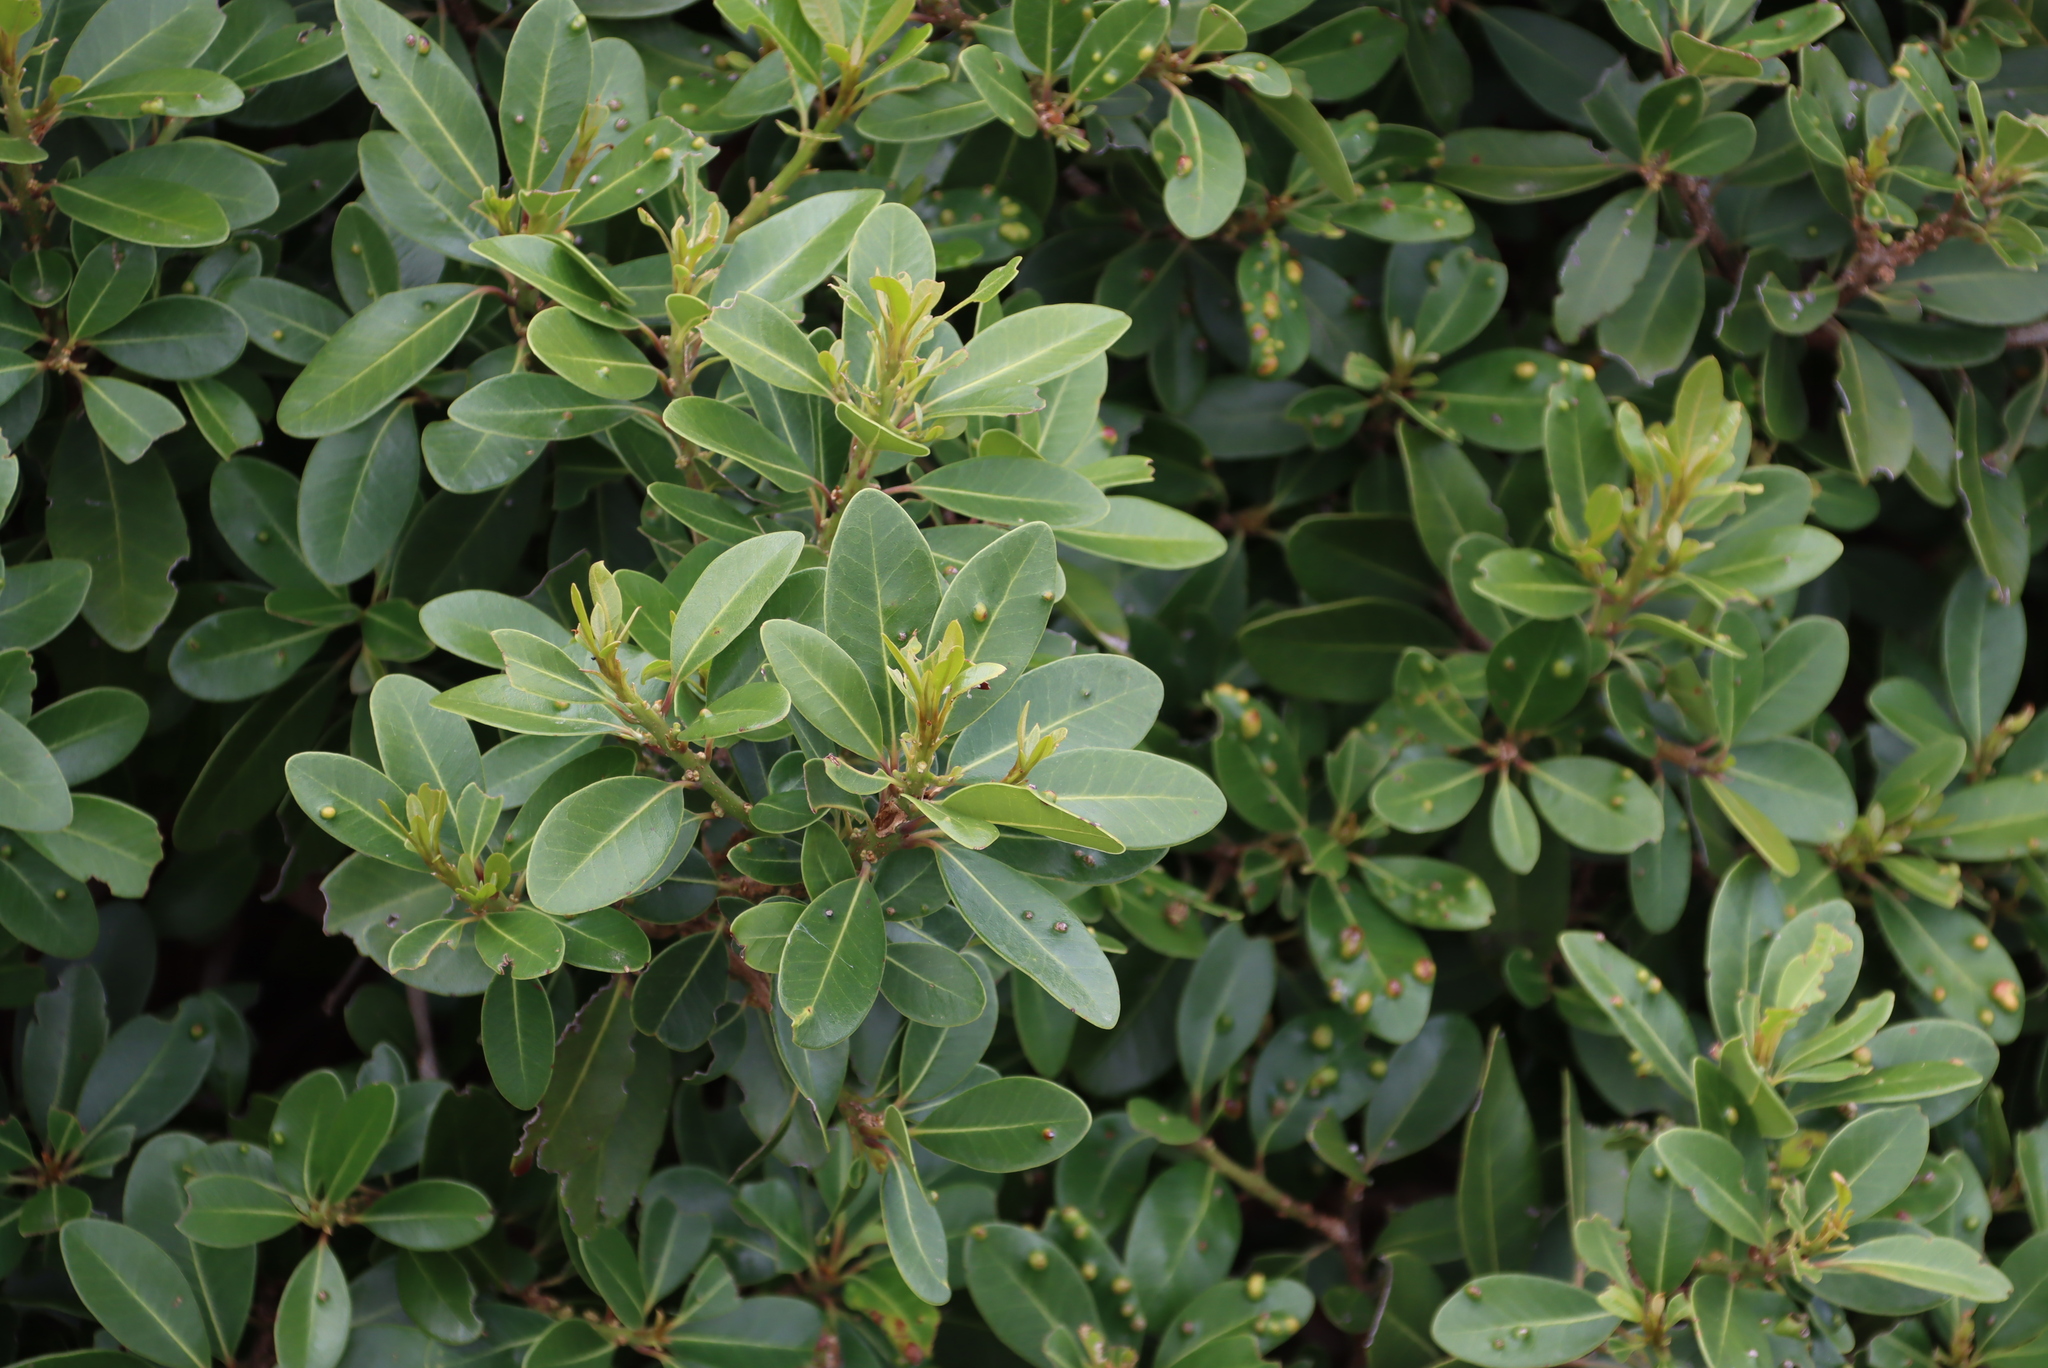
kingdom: Plantae
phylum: Tracheophyta
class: Magnoliopsida
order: Ericales
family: Sapotaceae
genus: Sideroxylon
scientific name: Sideroxylon inerme
